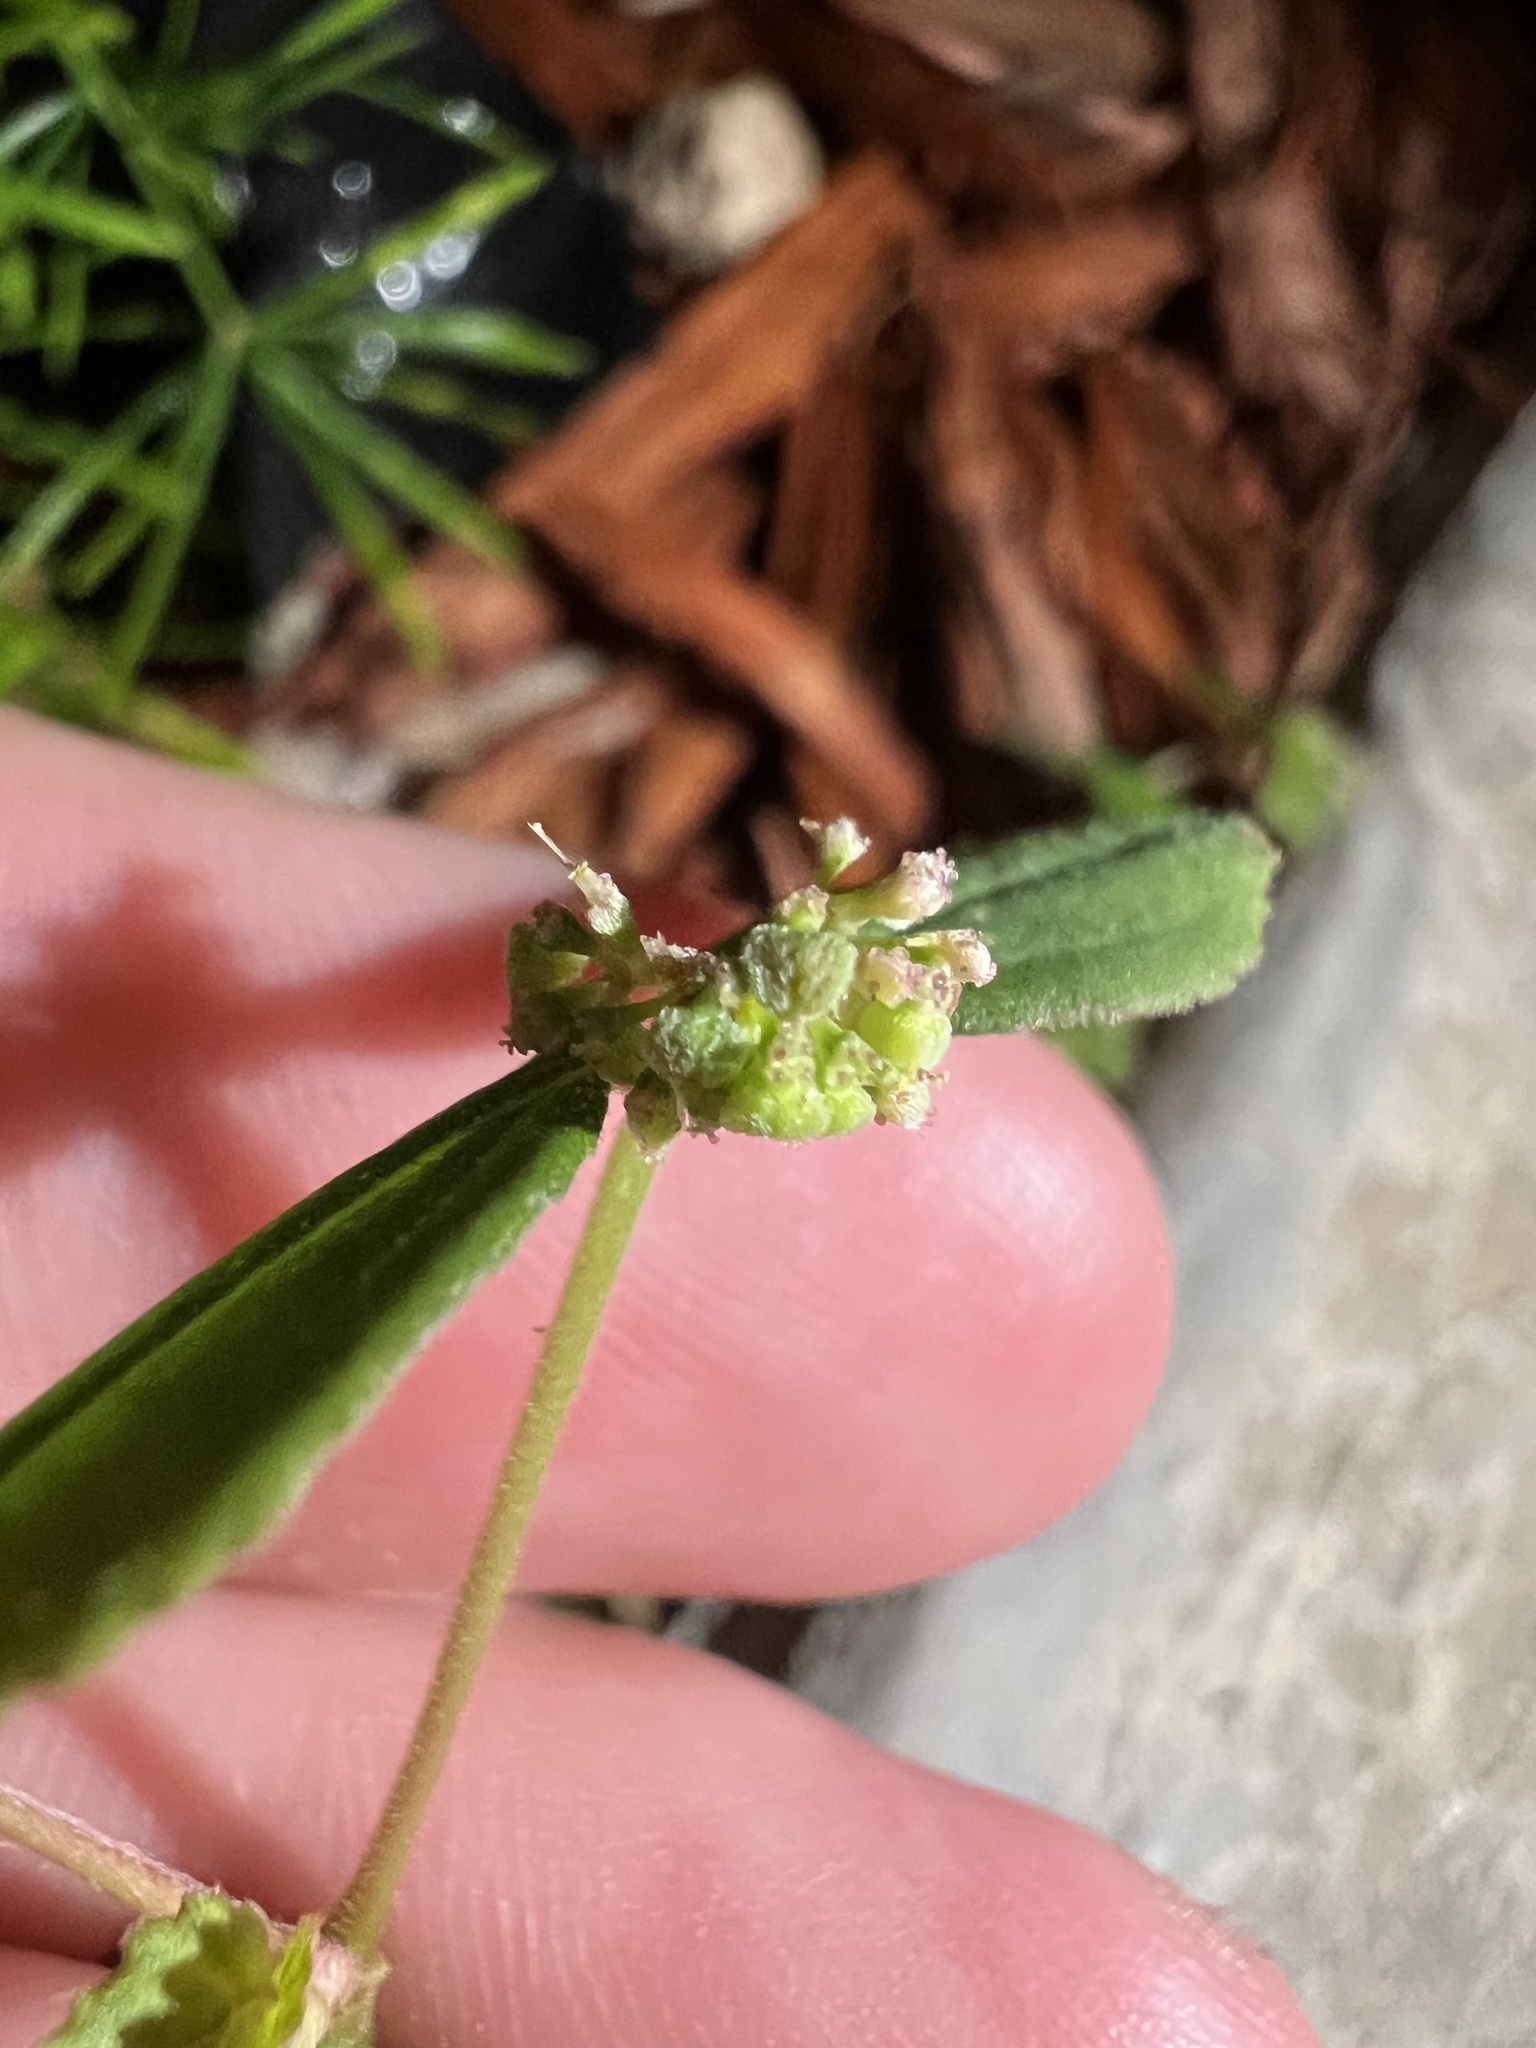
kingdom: Plantae
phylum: Tracheophyta
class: Magnoliopsida
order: Malpighiales
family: Euphorbiaceae
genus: Euphorbia
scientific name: Euphorbia ophthalmica
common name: Florida hammock sandmat
